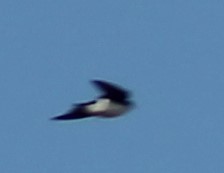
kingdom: Animalia
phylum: Chordata
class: Aves
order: Passeriformes
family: Hirundinidae
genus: Tachycineta
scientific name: Tachycineta bicolor
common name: Tree swallow
